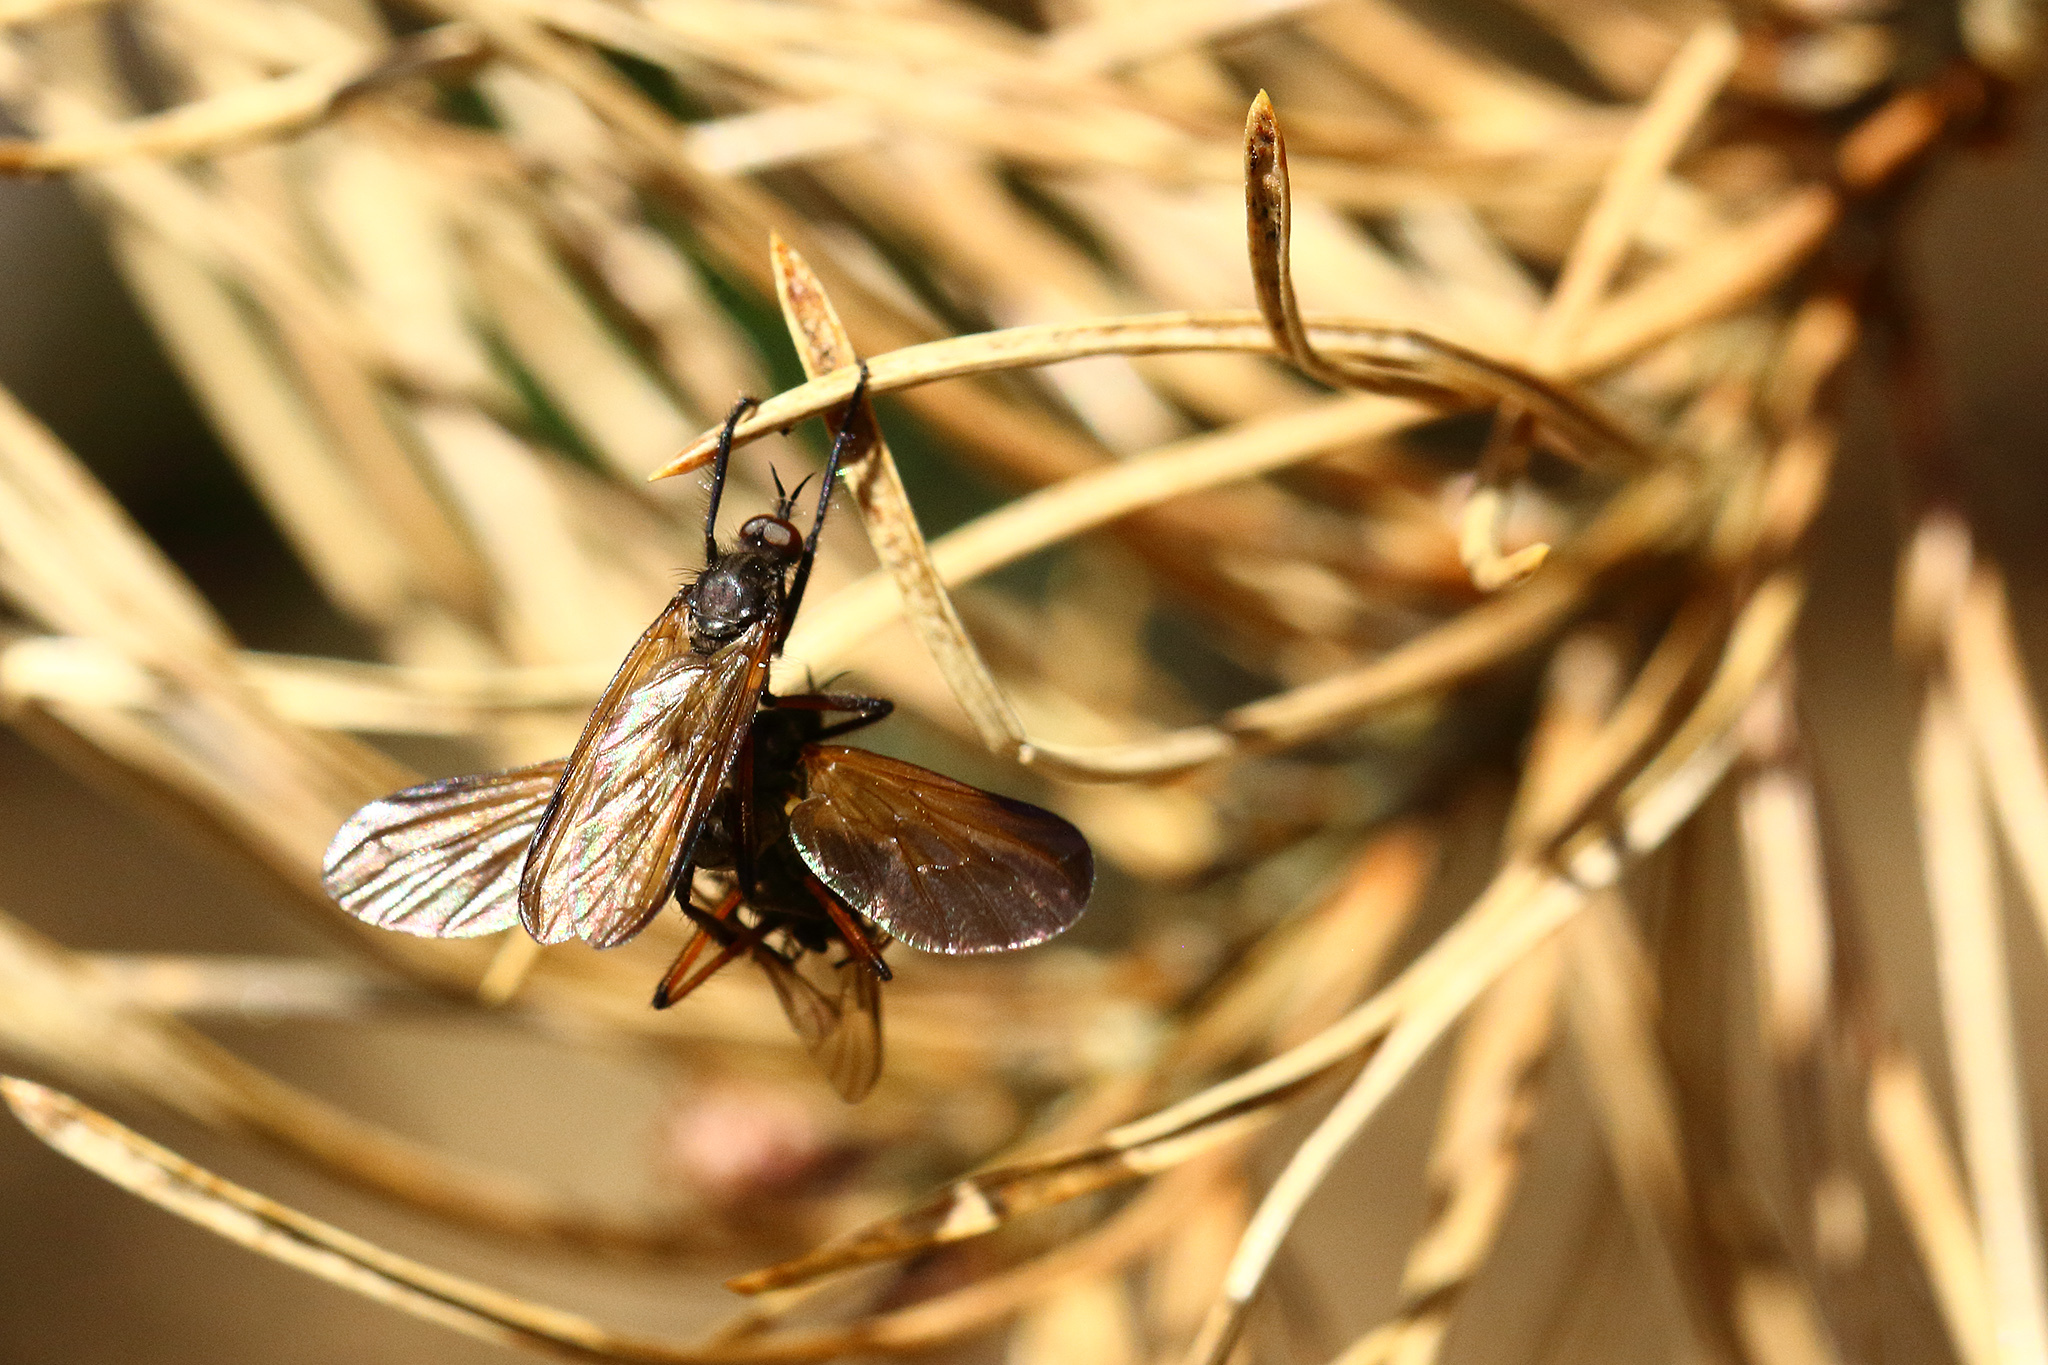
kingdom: Animalia
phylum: Arthropoda
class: Insecta
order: Diptera
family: Empididae
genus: Empis
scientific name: Empis borealis
